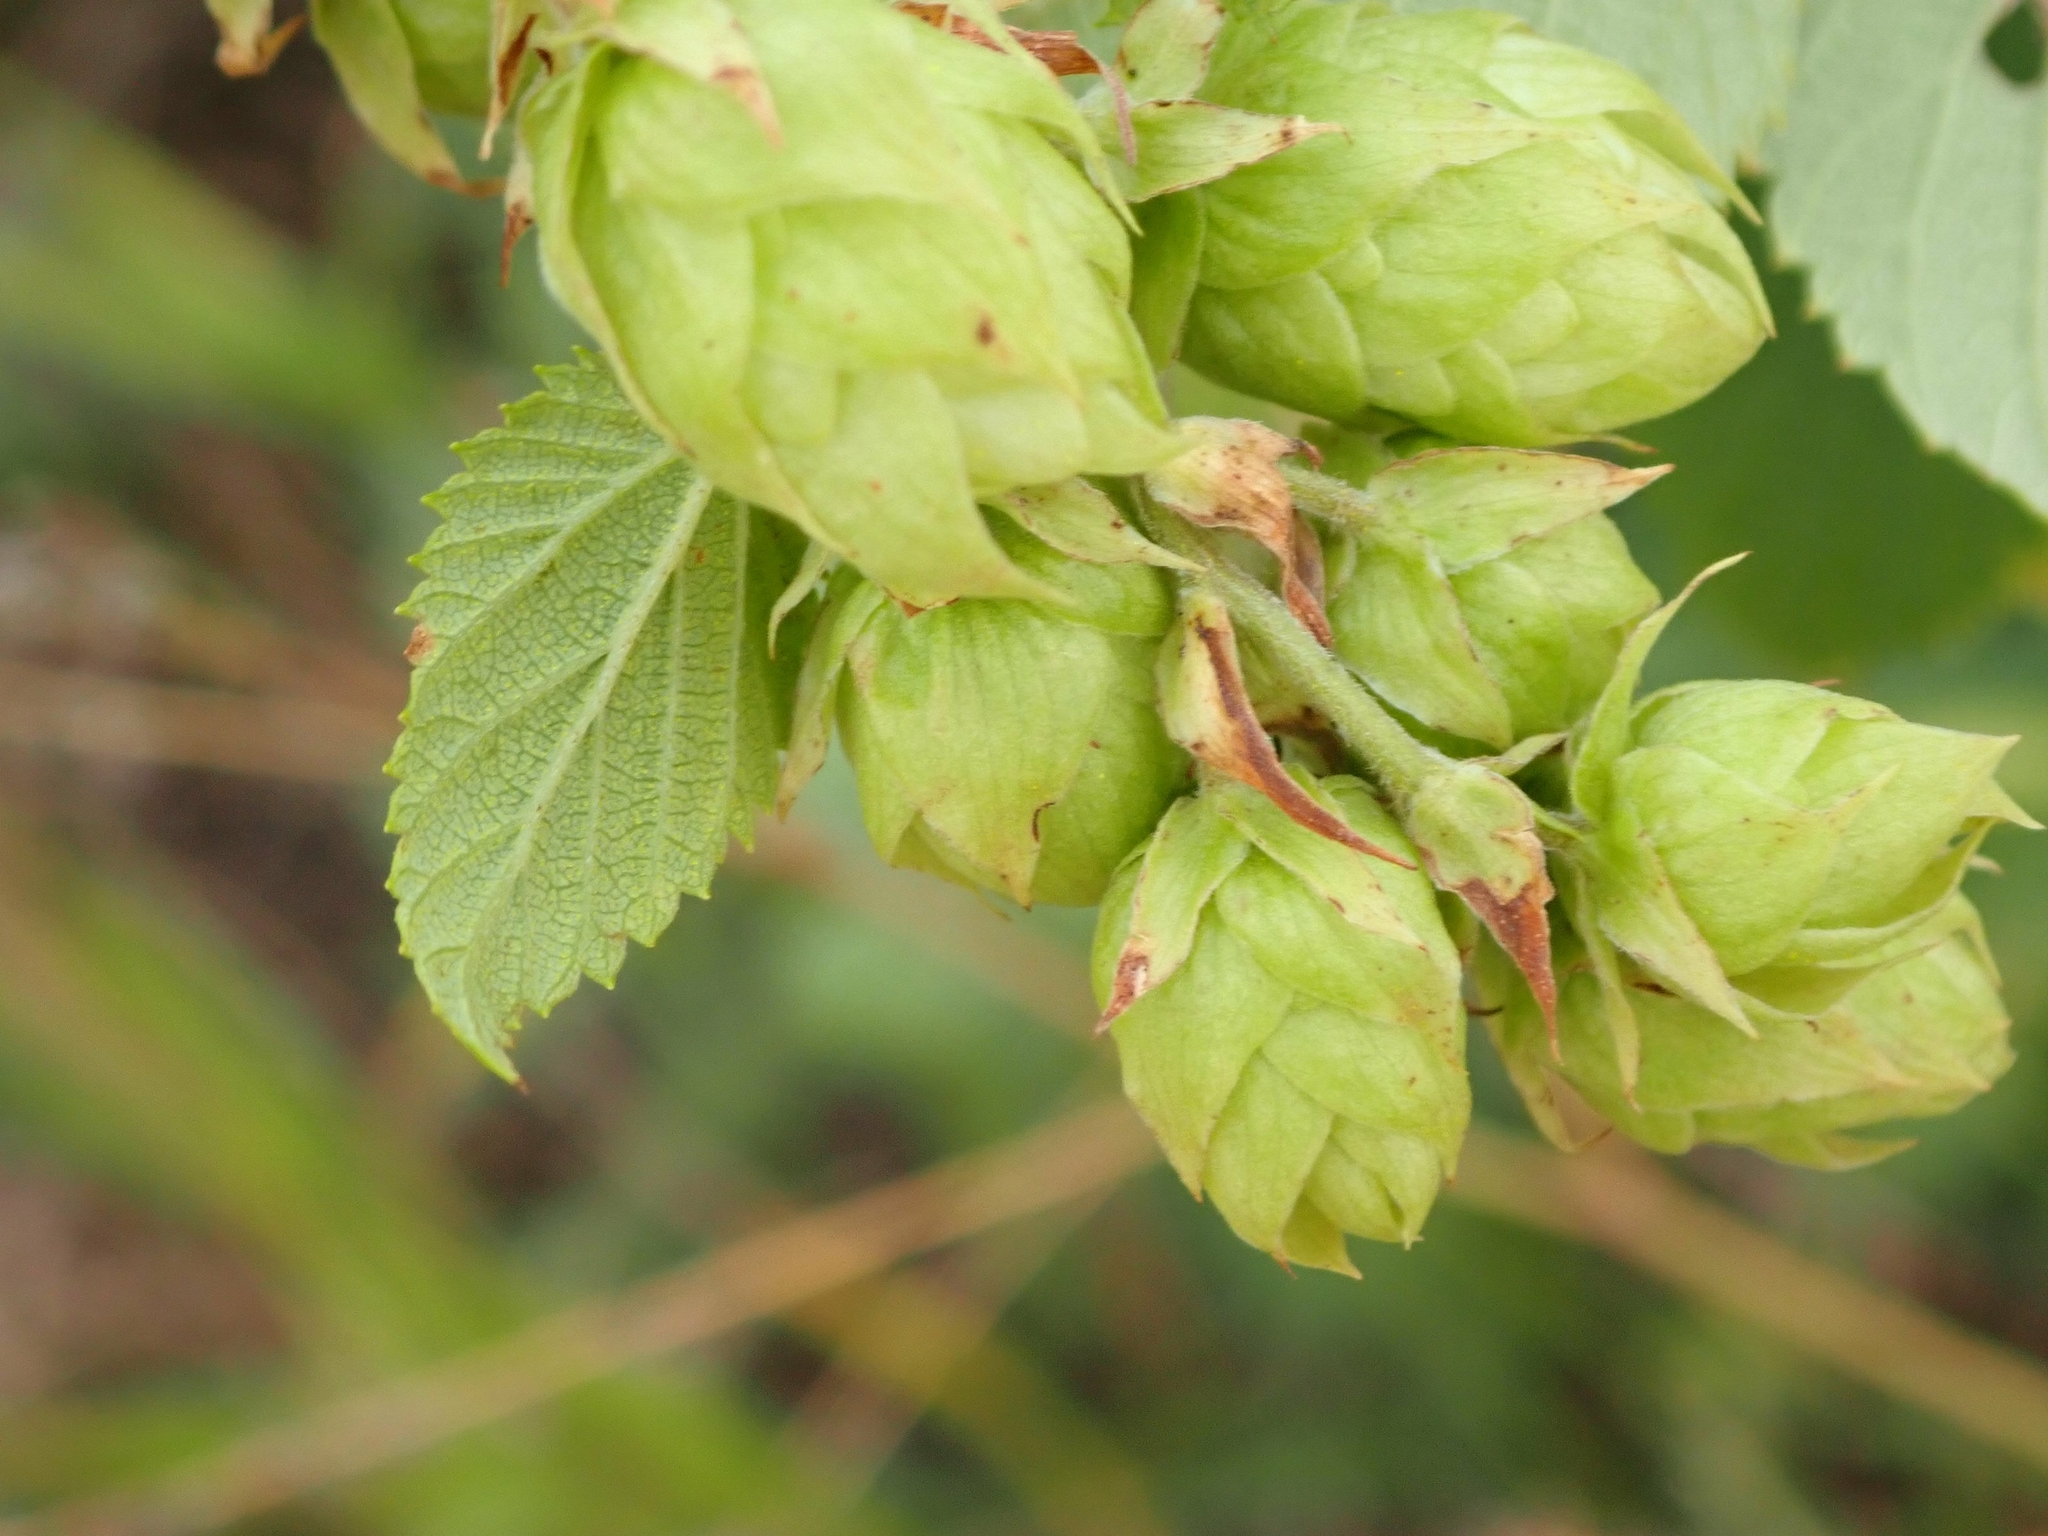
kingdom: Plantae
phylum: Tracheophyta
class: Magnoliopsida
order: Rosales
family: Cannabaceae
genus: Humulus
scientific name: Humulus lupulus
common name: Hop
